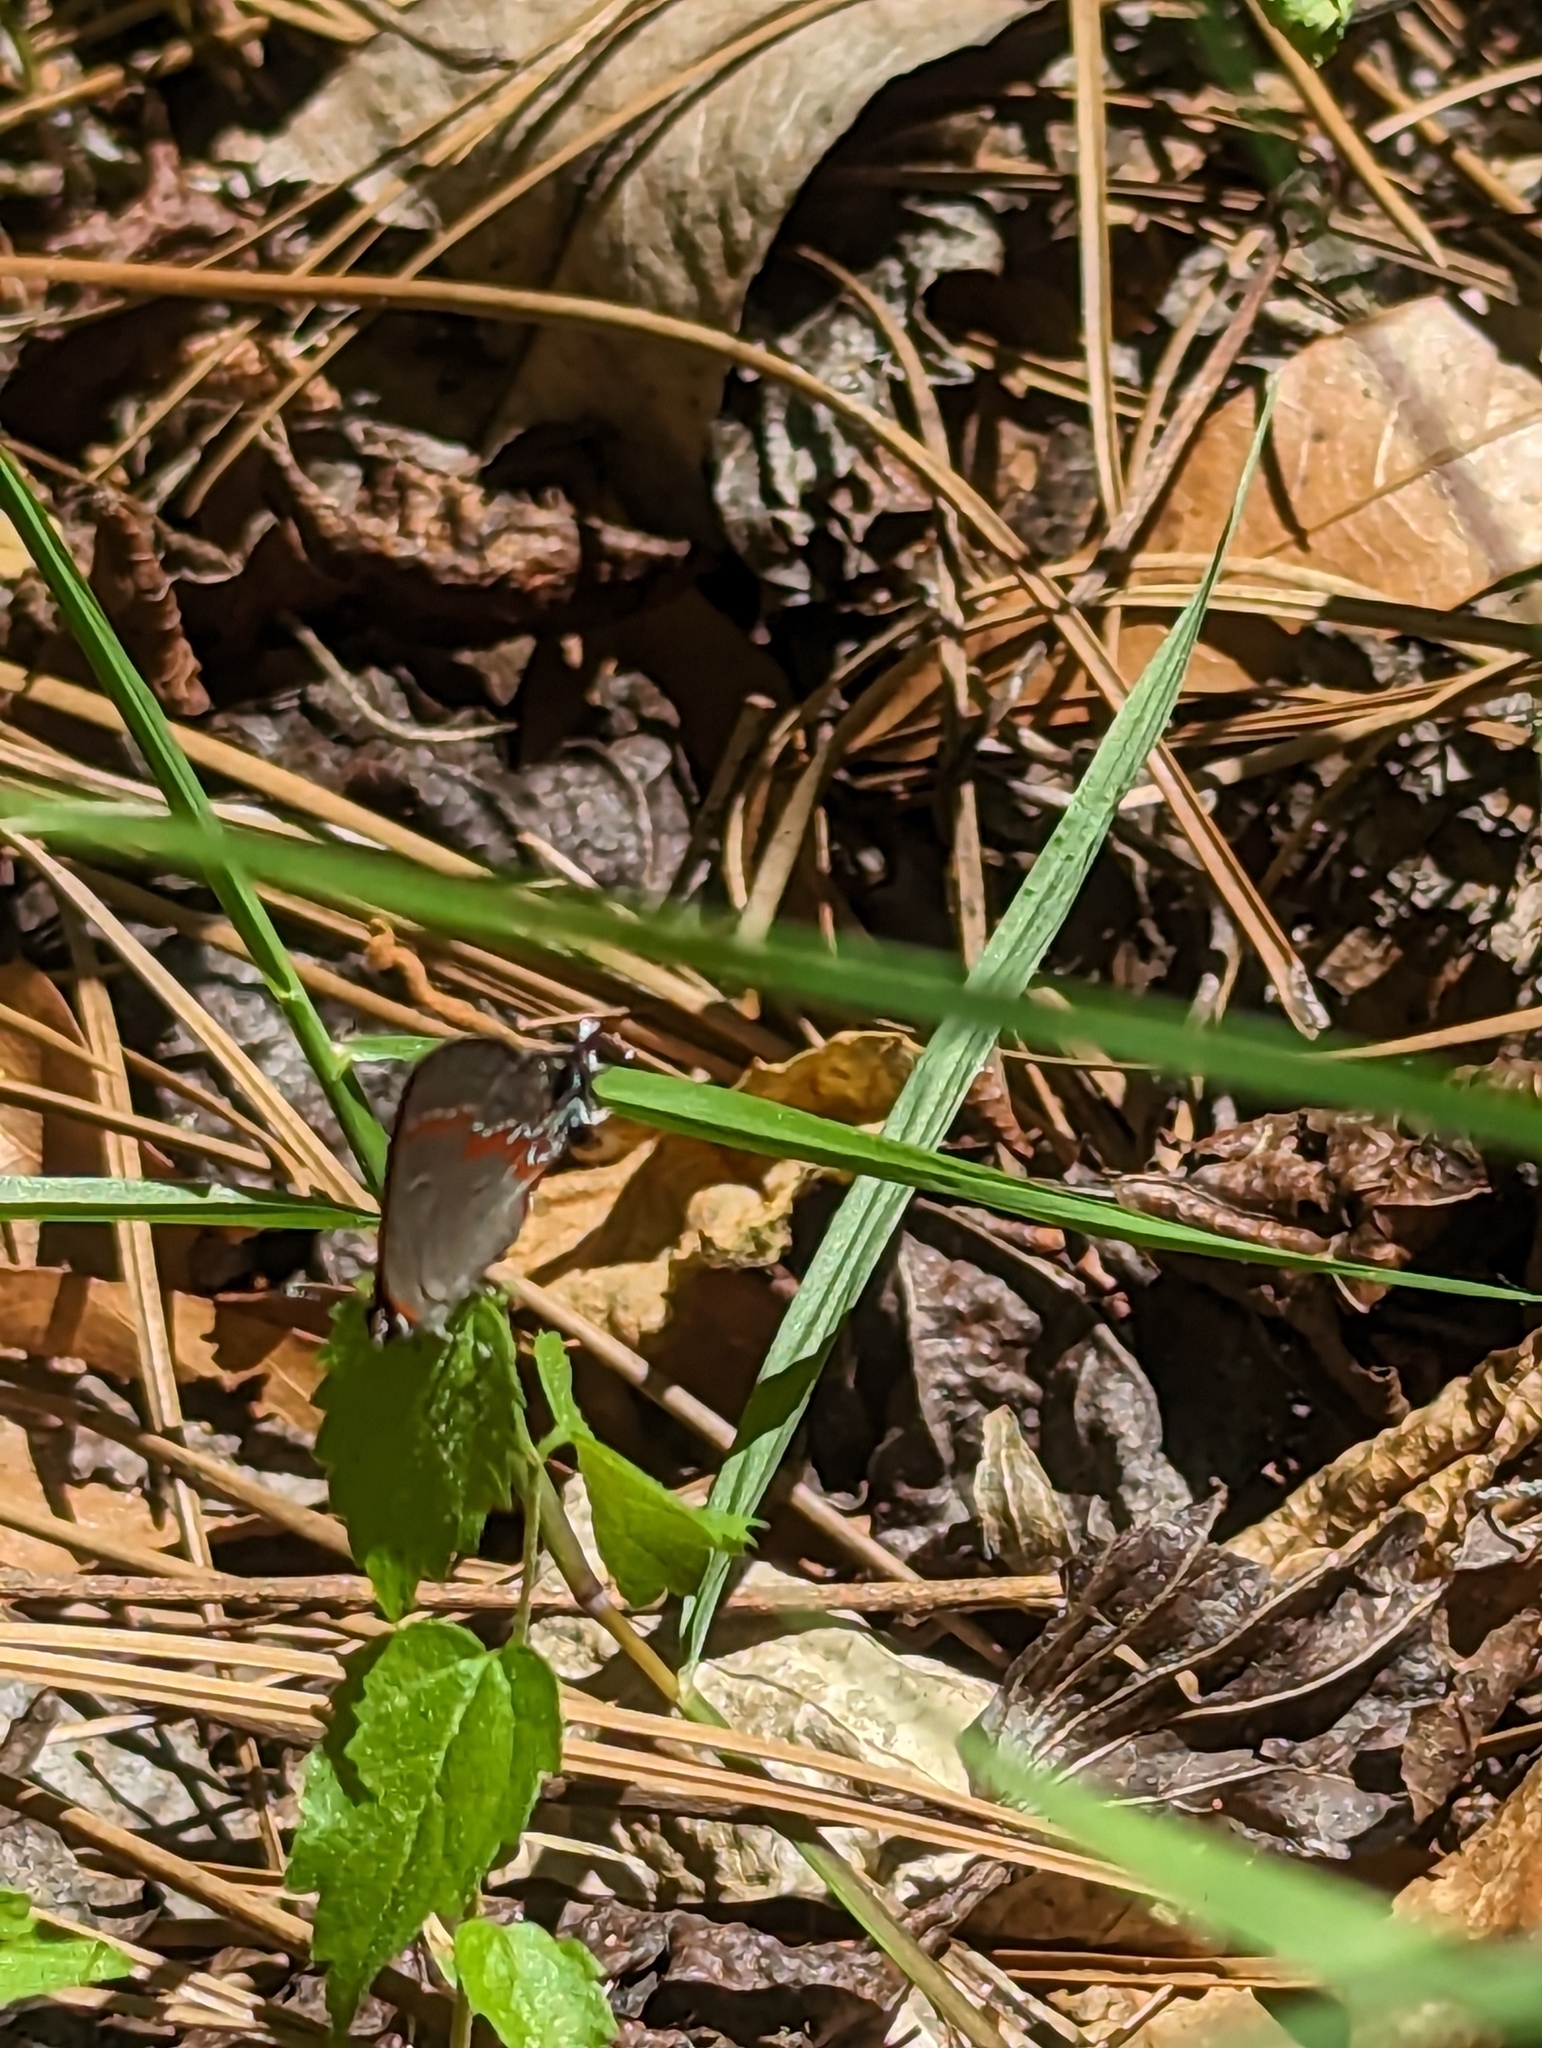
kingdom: Animalia
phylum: Arthropoda
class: Insecta
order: Lepidoptera
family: Lycaenidae
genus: Calycopis
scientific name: Calycopis cecrops
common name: Red-banded hairstreak
